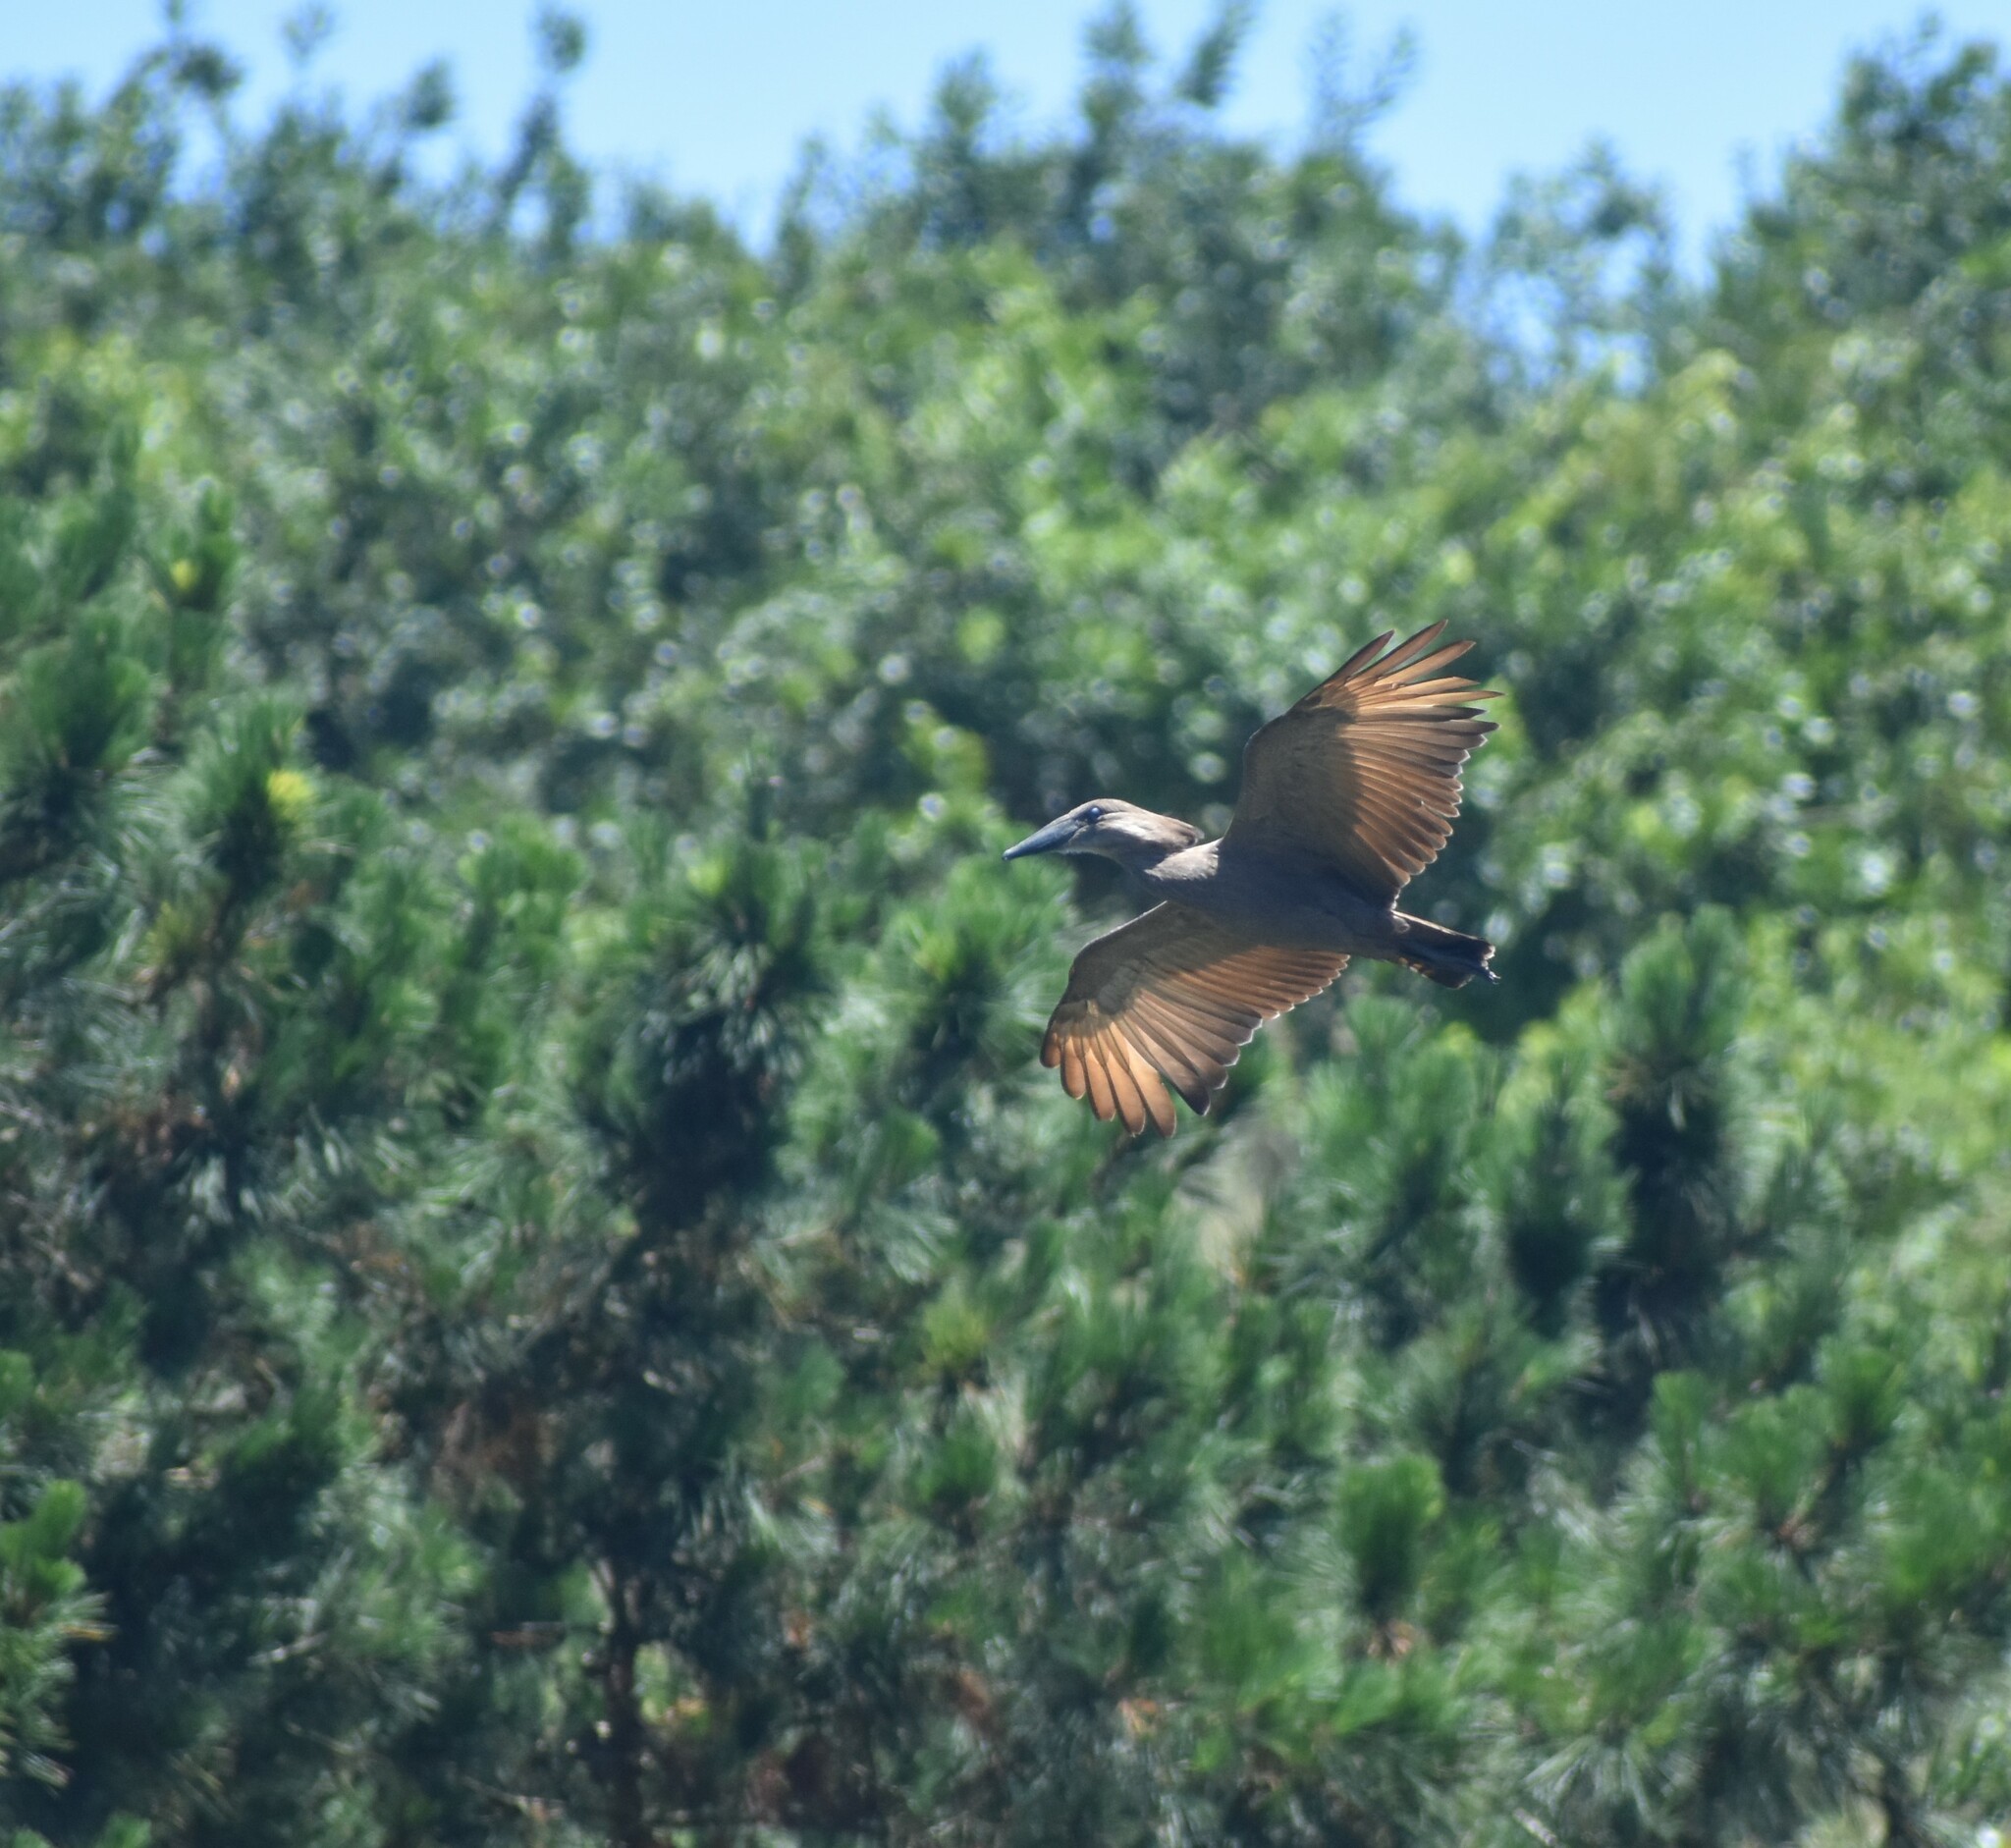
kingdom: Animalia
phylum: Chordata
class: Aves
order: Pelecaniformes
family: Scopidae
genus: Scopus
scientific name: Scopus umbretta
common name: Hamerkop
